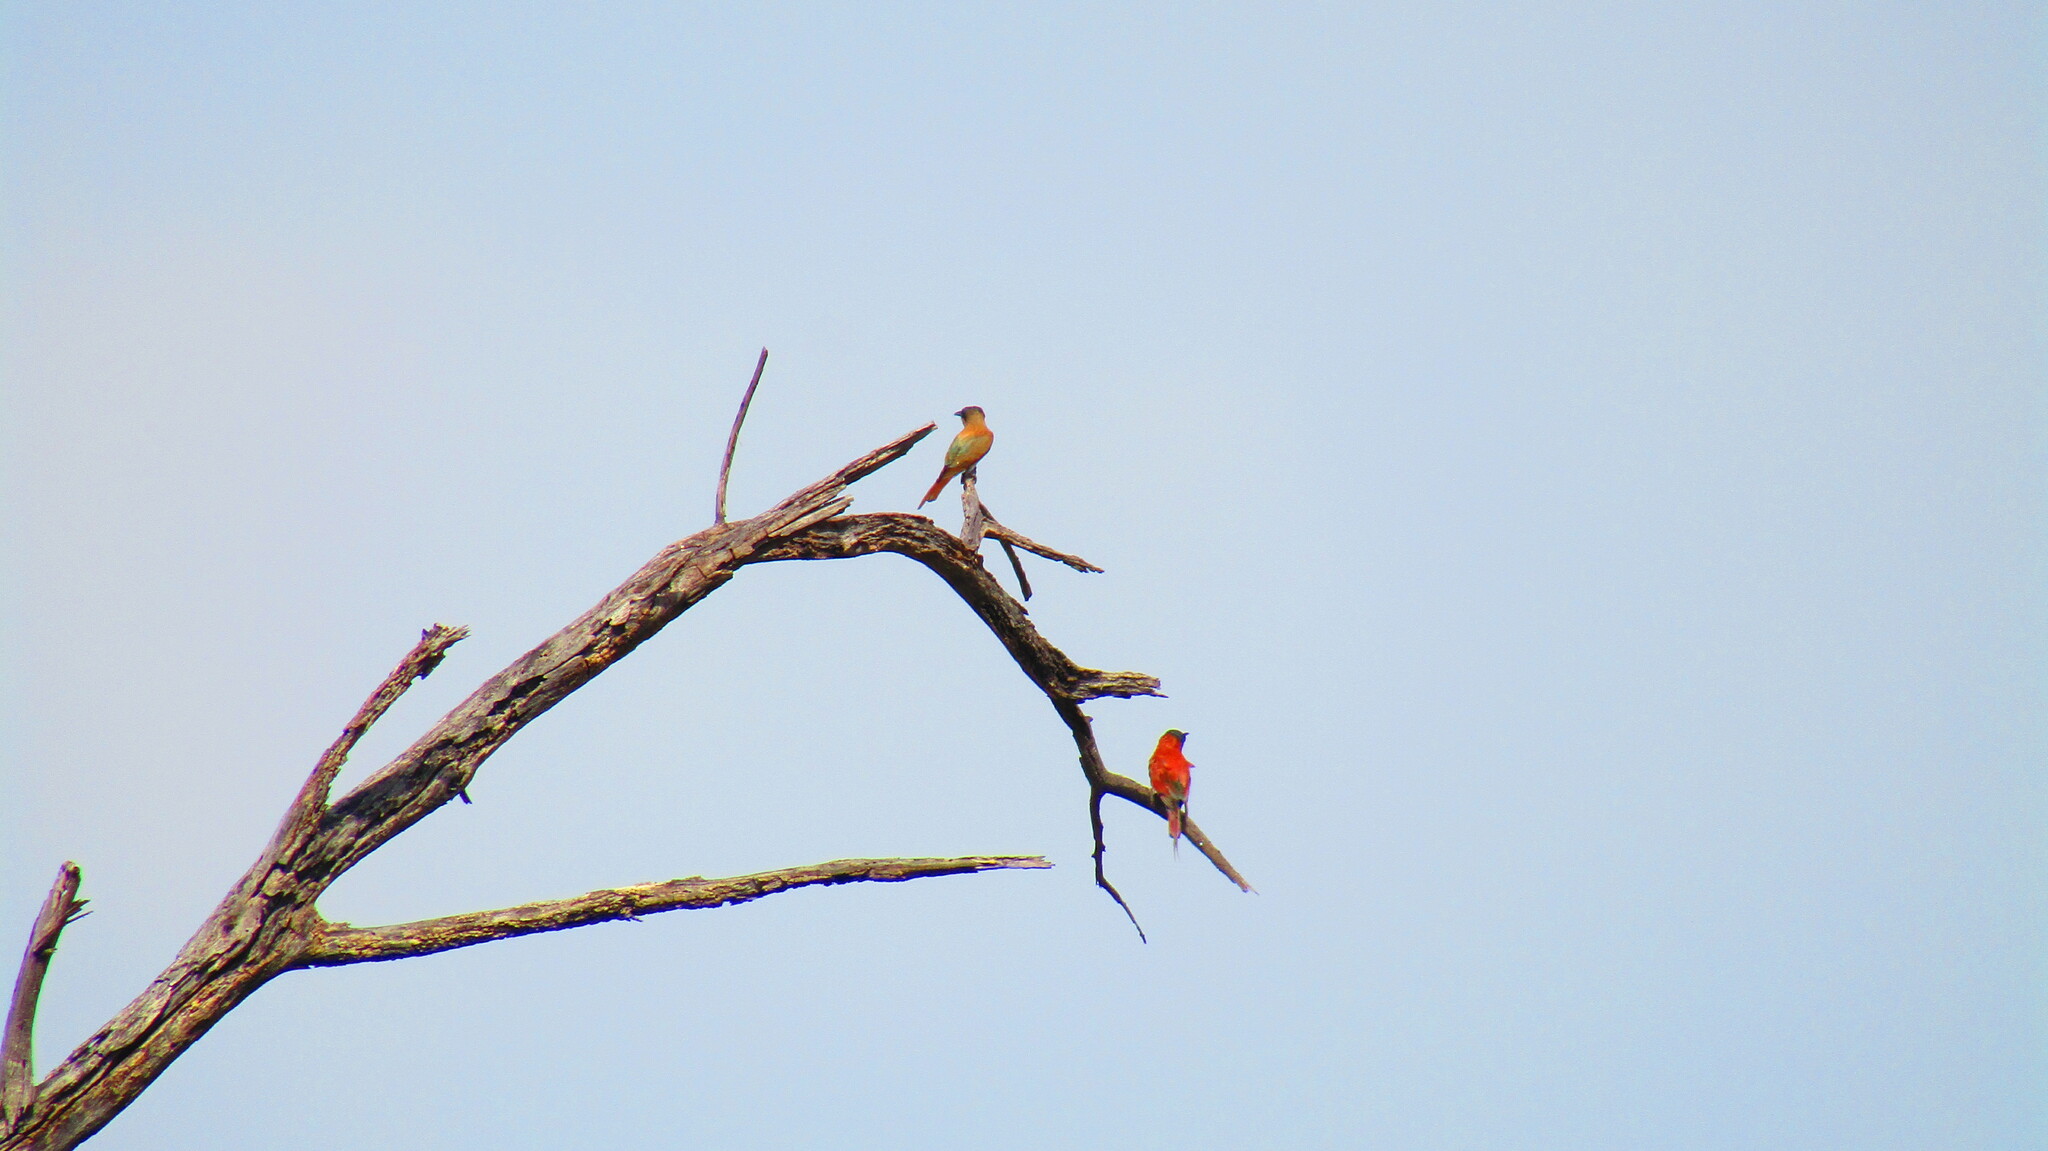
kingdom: Animalia
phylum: Chordata
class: Aves
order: Coraciiformes
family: Meropidae
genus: Merops
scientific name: Merops nubicoides
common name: Southern carmine bee-eater
